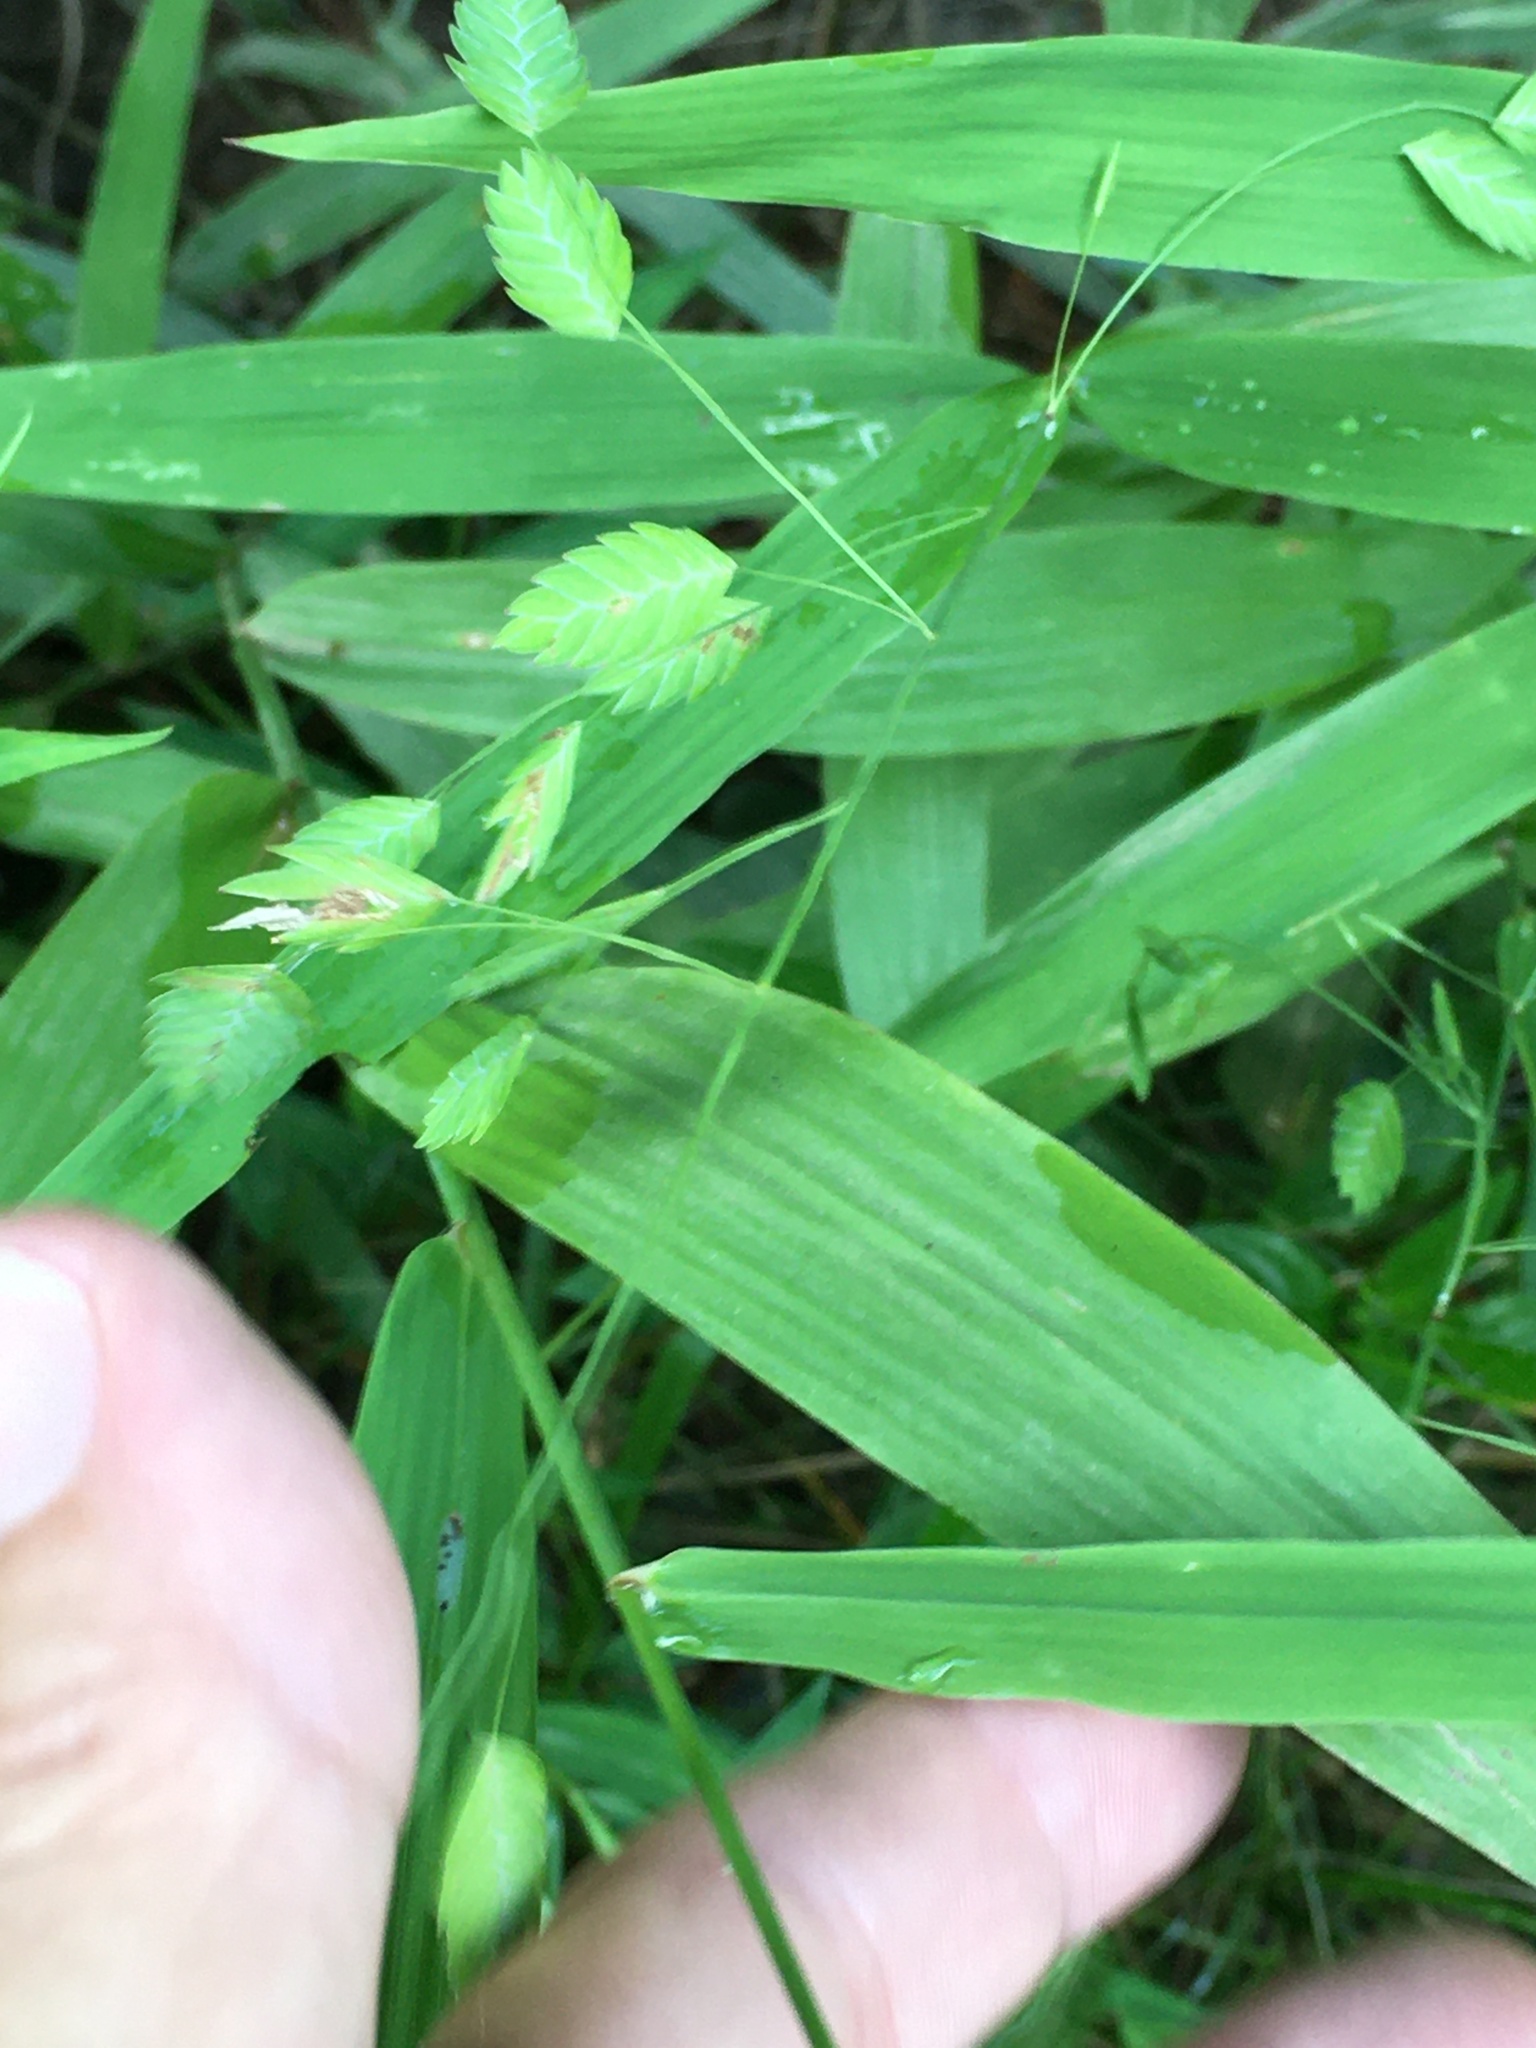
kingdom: Plantae
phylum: Tracheophyta
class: Liliopsida
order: Poales
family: Poaceae
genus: Chasmanthium
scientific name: Chasmanthium latifolium
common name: Broad-leaved chasmanthium
